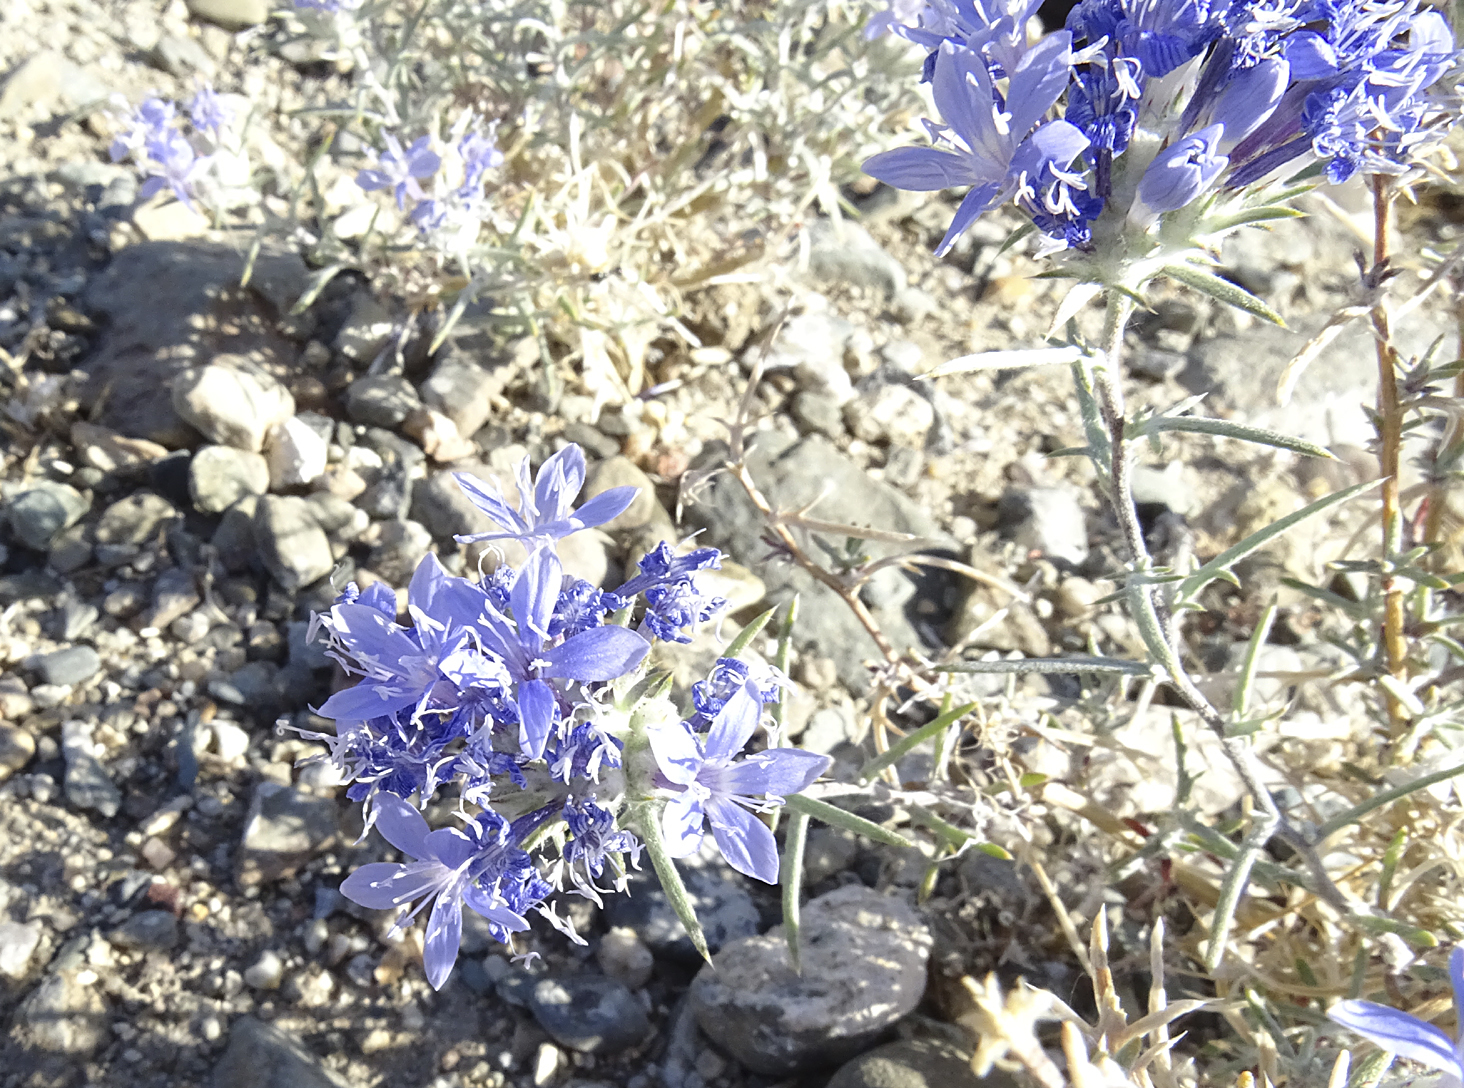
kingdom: Plantae
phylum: Tracheophyta
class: Magnoliopsida
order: Ericales
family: Polemoniaceae
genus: Eriastrum
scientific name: Eriastrum densifolium
